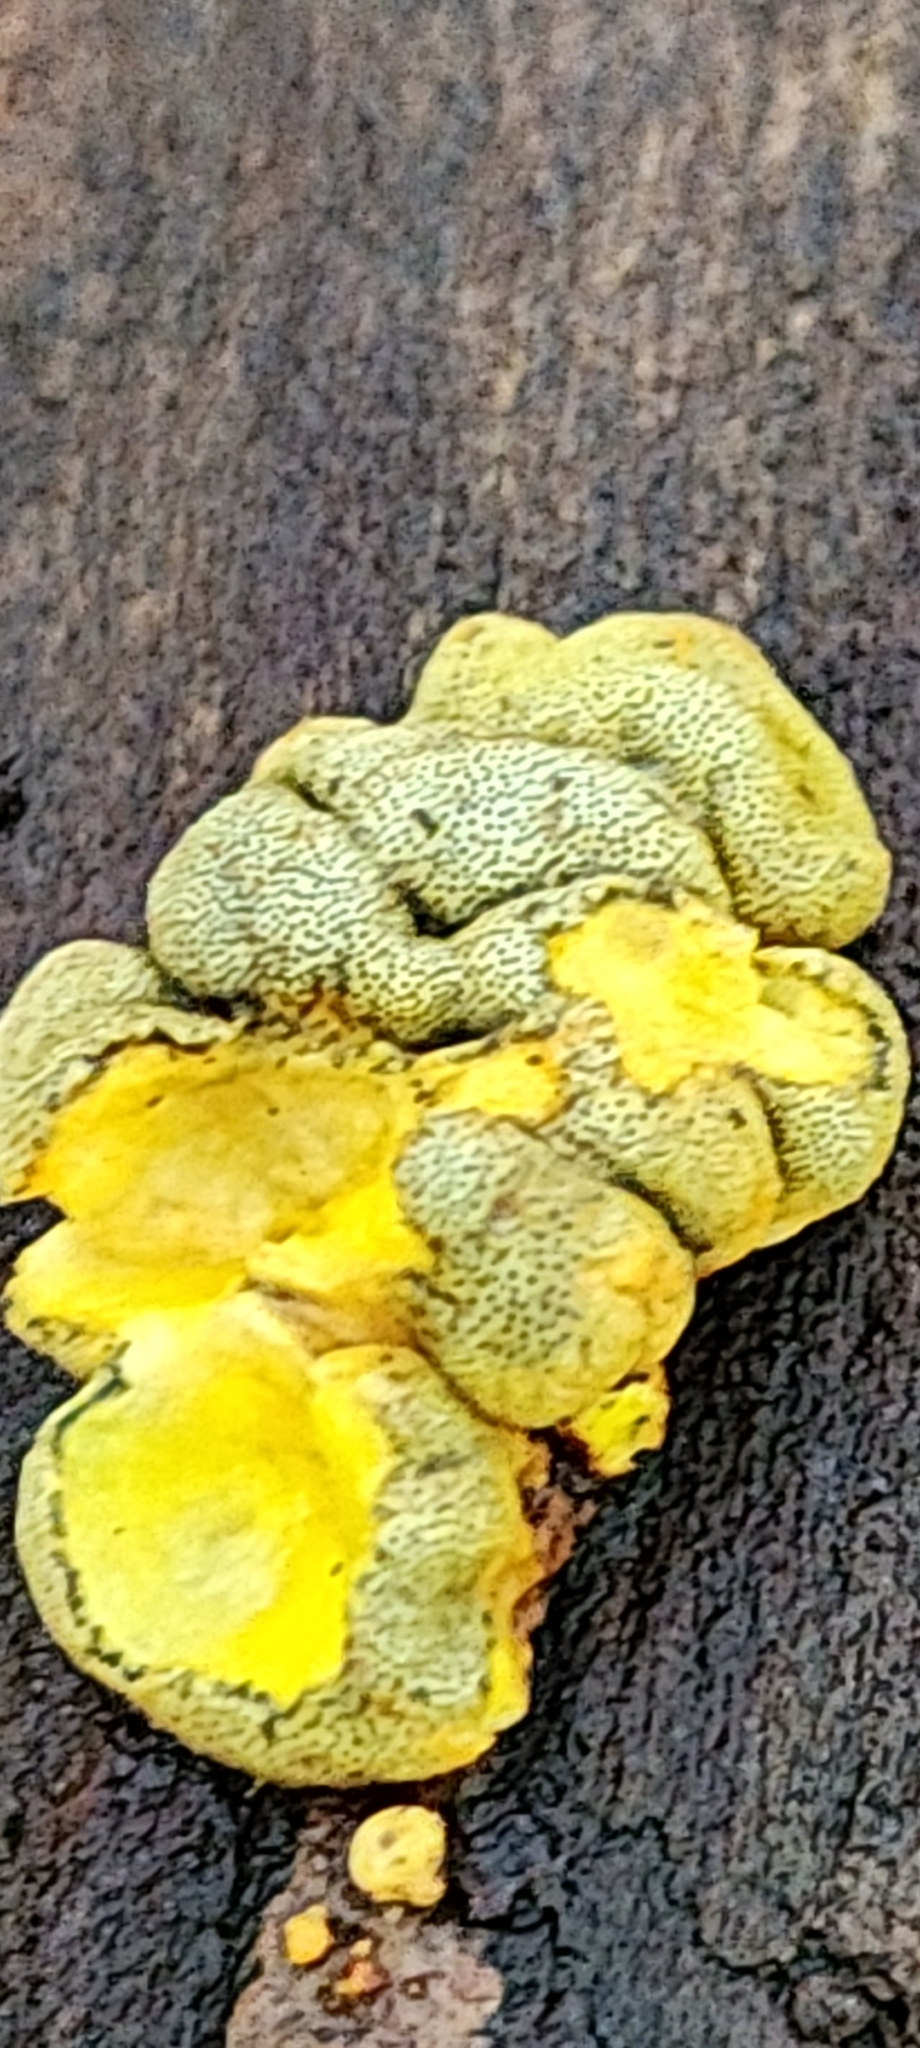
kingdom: Fungi
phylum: Ascomycota
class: Sordariomycetes
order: Xylariales
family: Hypoxylaceae
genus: Thuemenella
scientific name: Thuemenella cubispora
